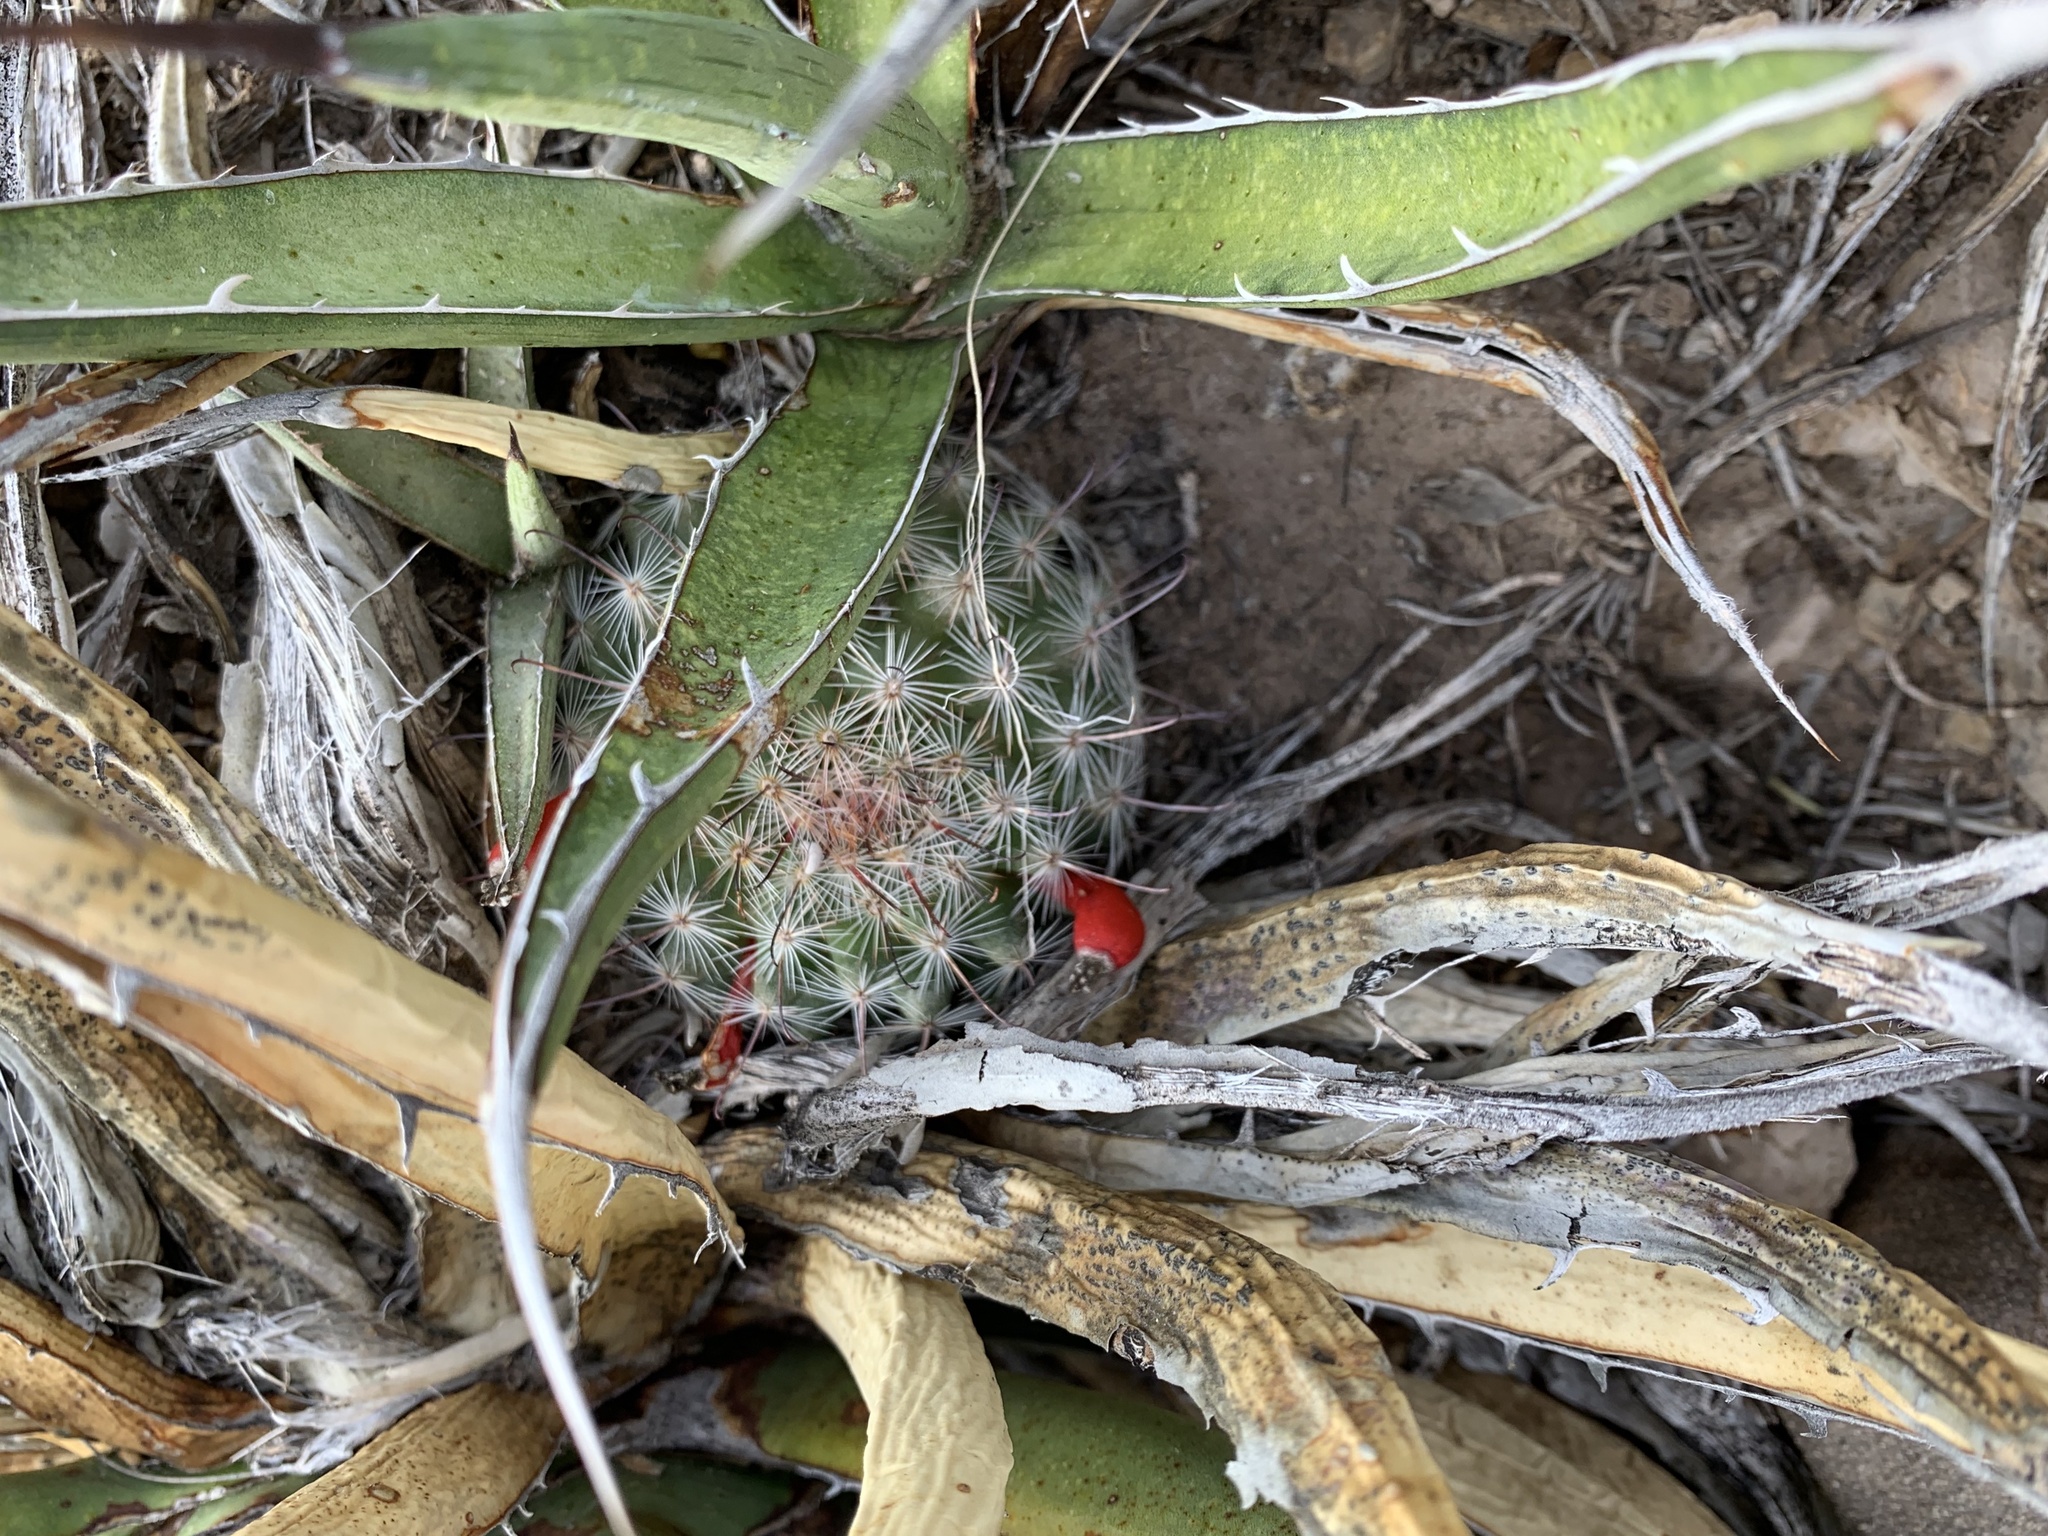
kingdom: Plantae
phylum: Tracheophyta
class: Magnoliopsida
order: Caryophyllales
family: Cactaceae
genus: Cochemiea
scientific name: Cochemiea grahamii
